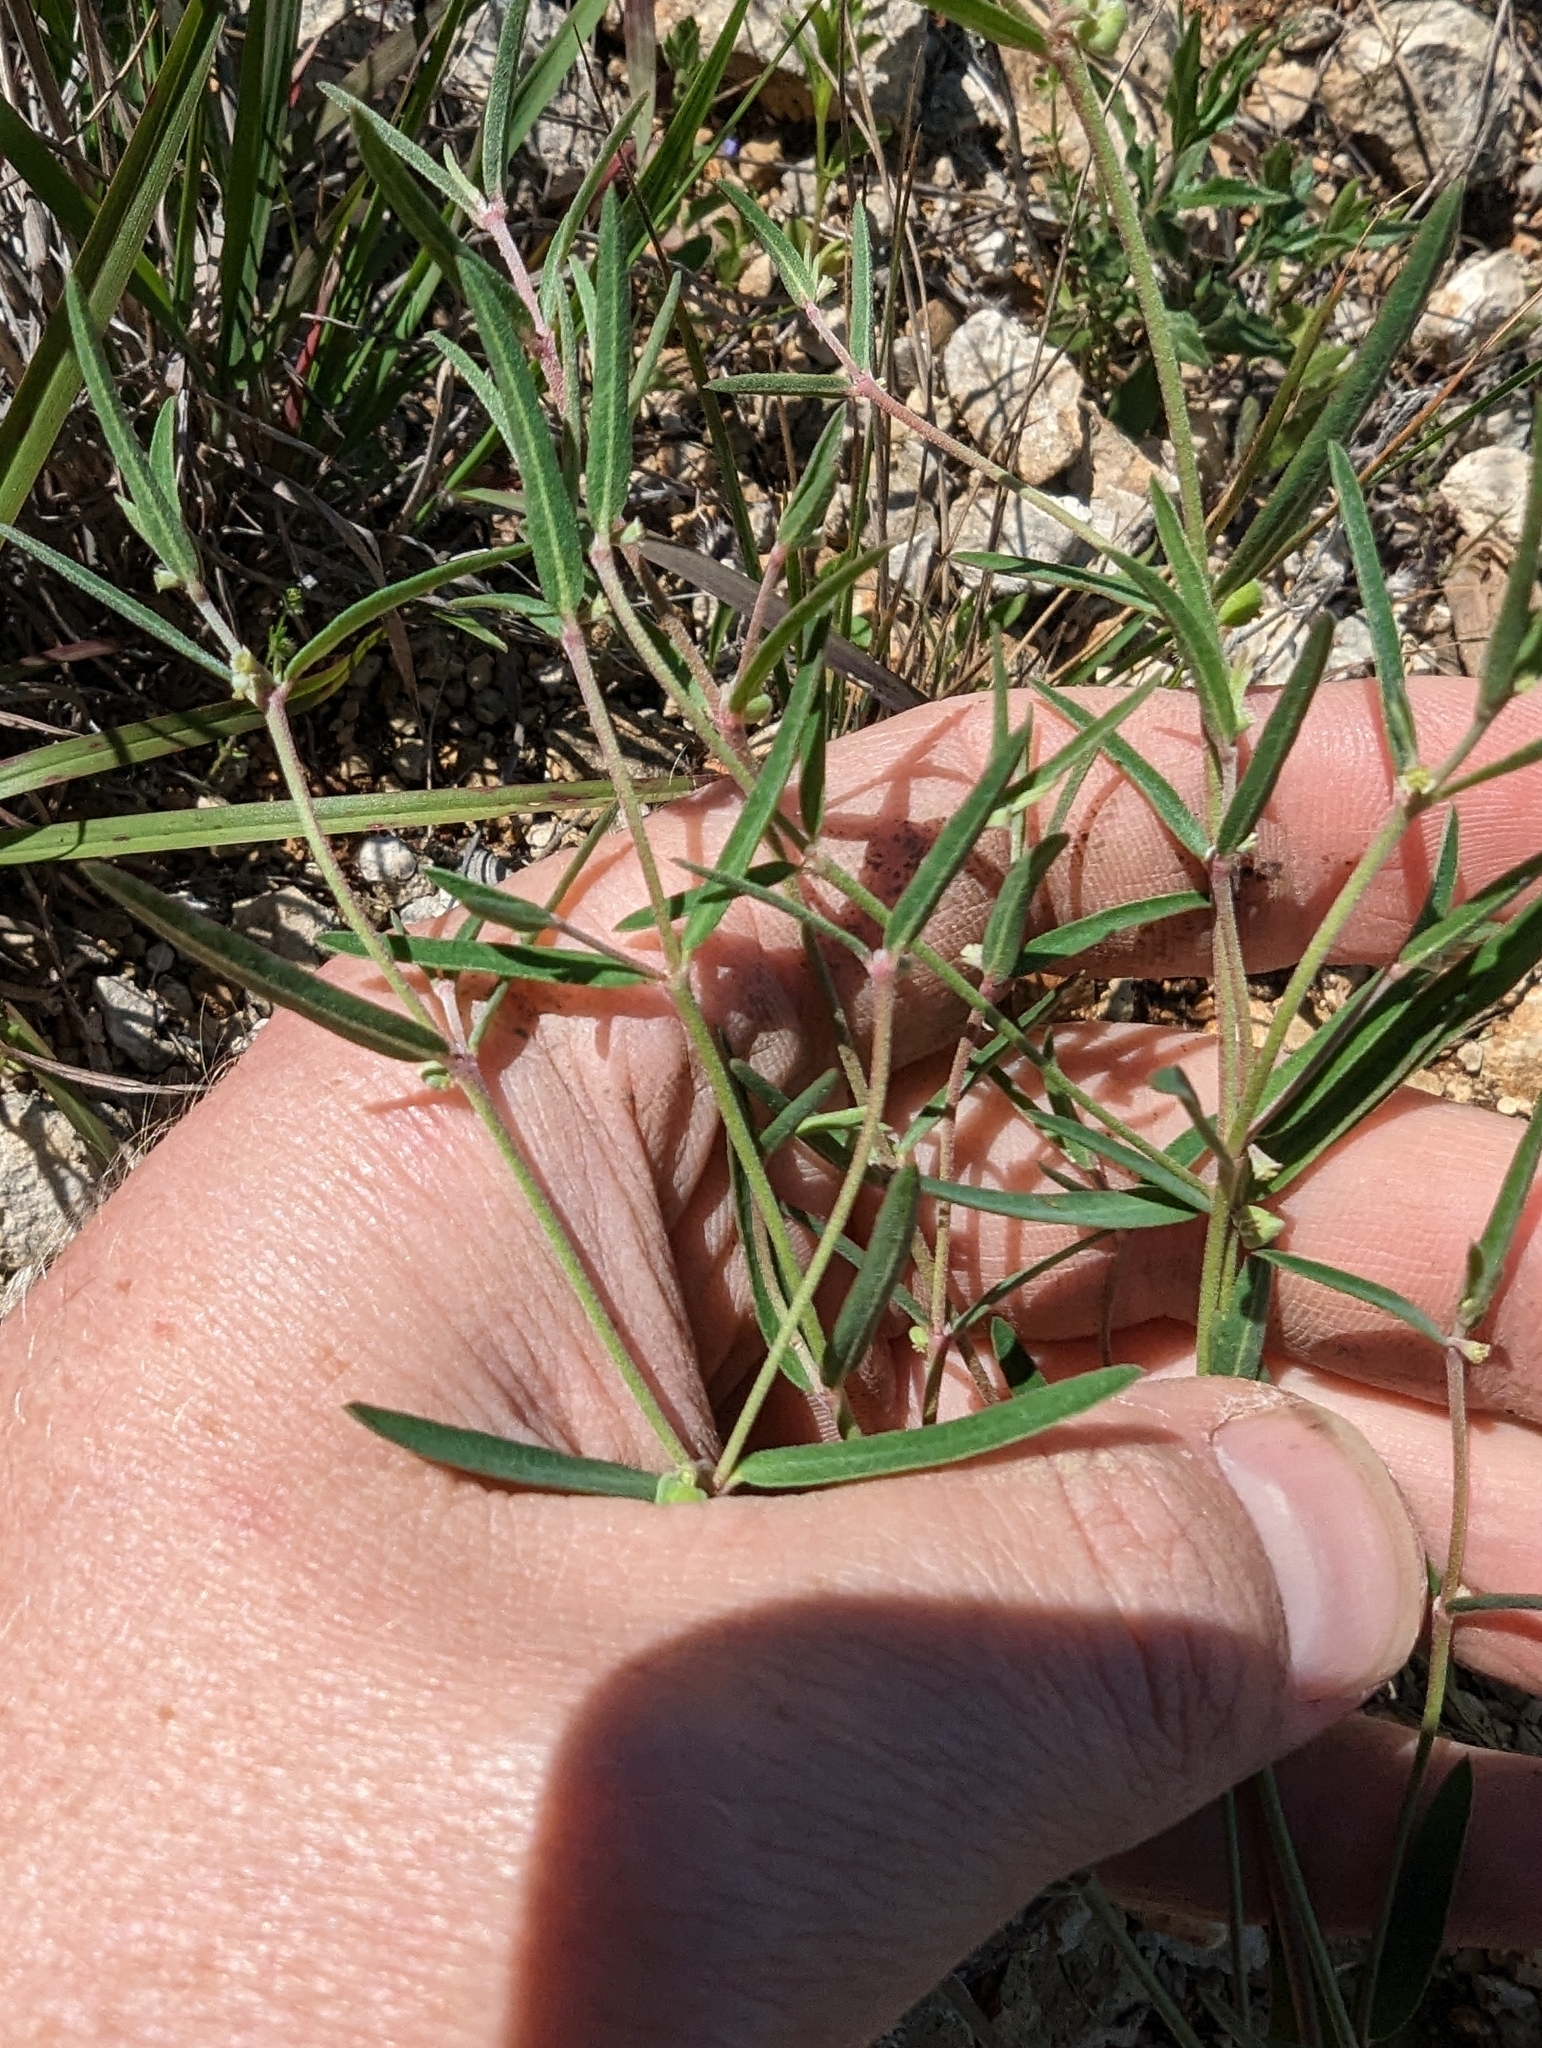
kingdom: Plantae
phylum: Tracheophyta
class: Magnoliopsida
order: Malpighiales
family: Euphorbiaceae
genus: Euphorbia
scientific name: Euphorbia angusta
